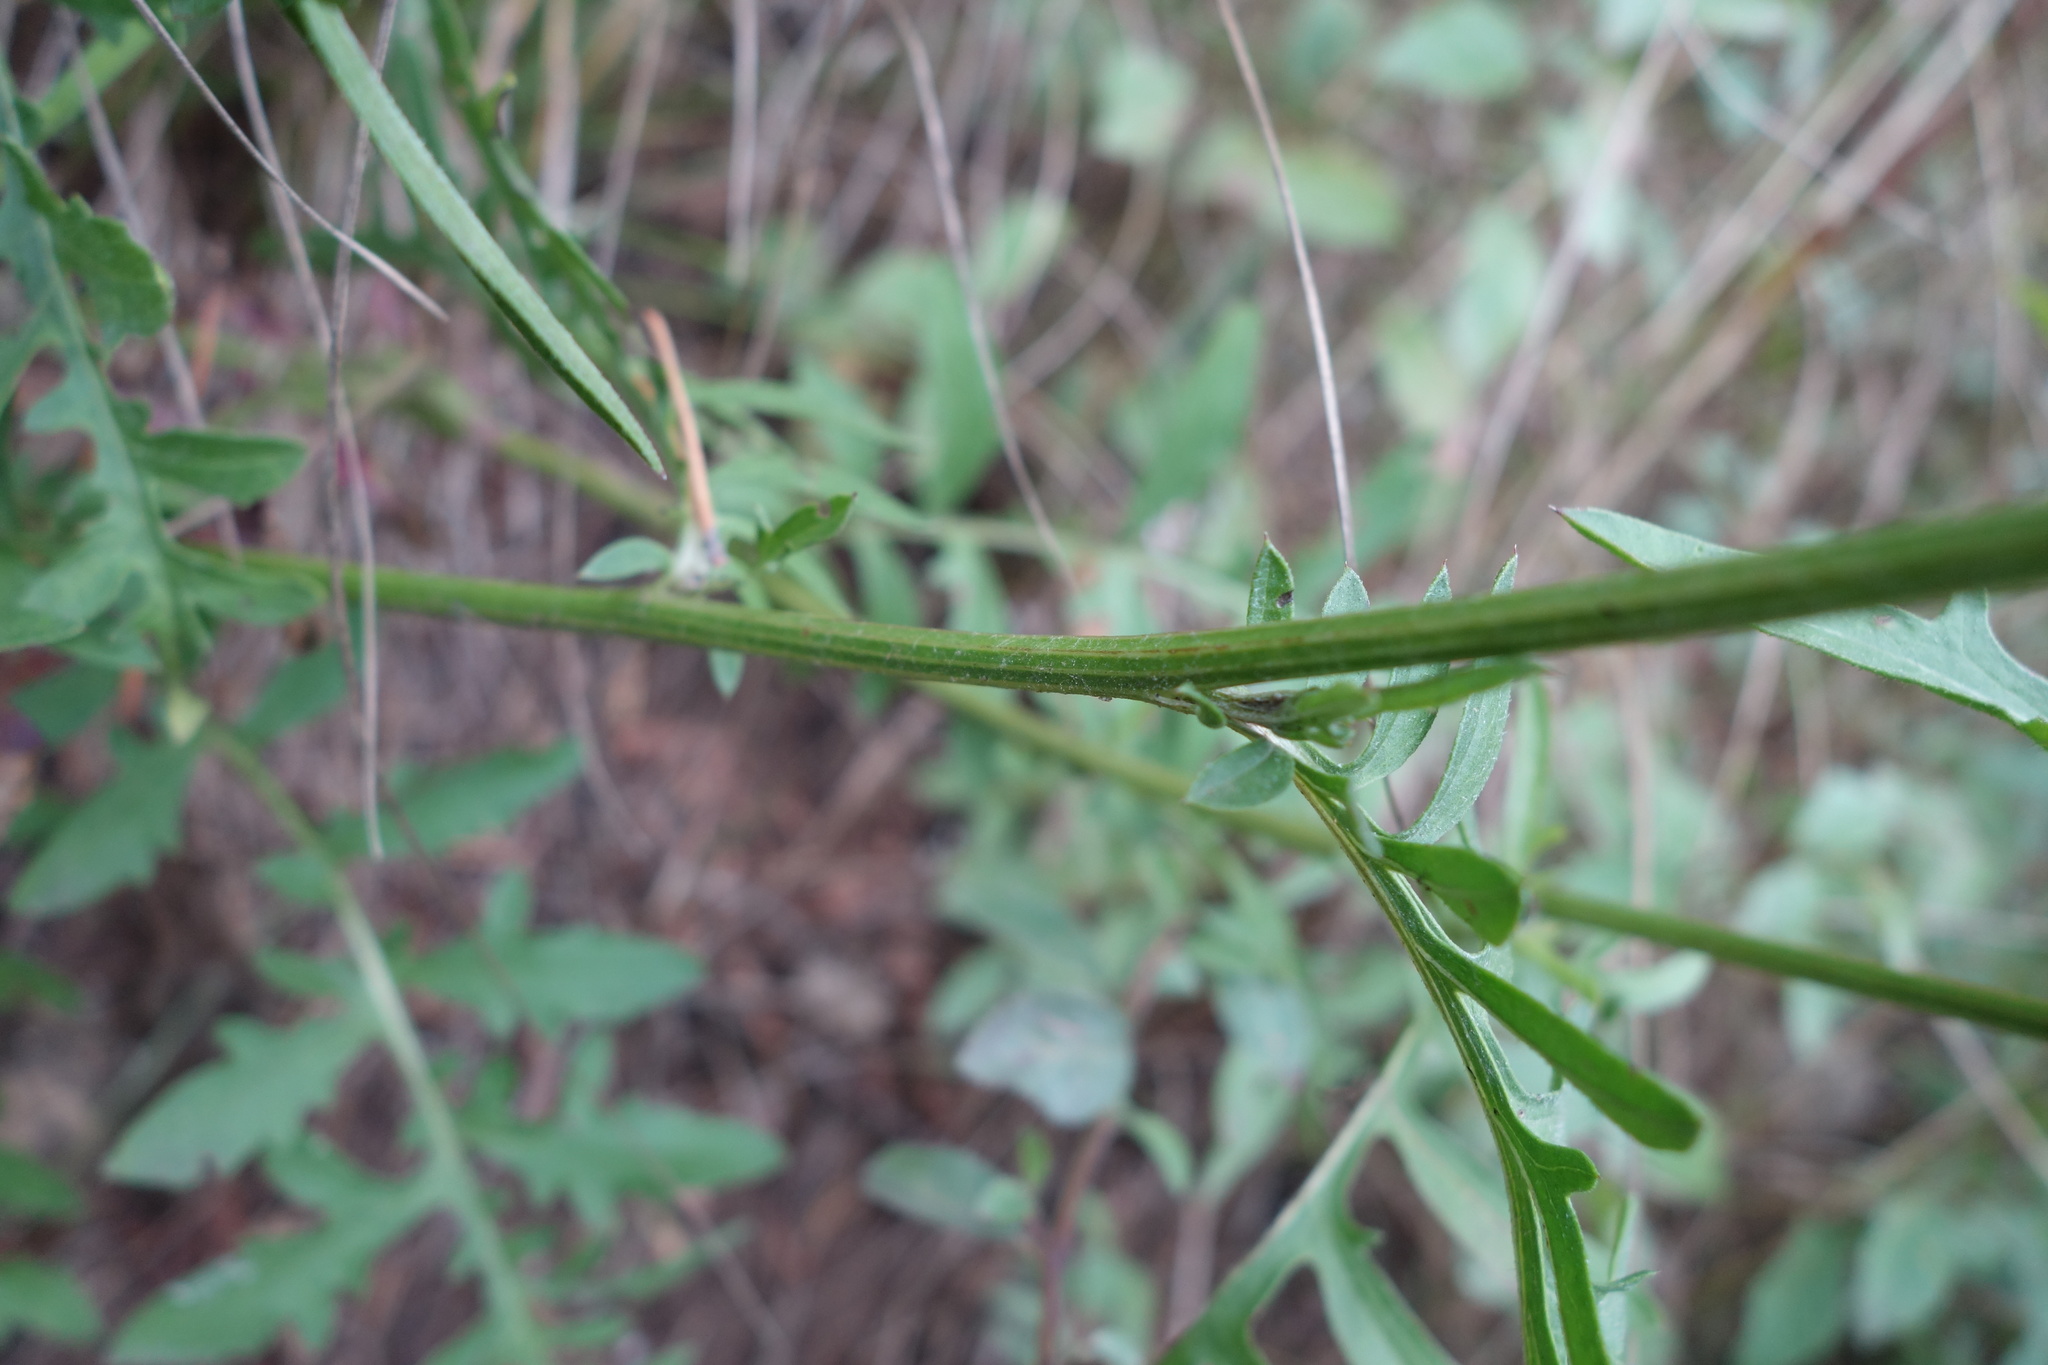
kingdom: Plantae
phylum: Tracheophyta
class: Magnoliopsida
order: Asterales
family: Asteraceae
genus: Centaurea
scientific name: Centaurea scabiosa
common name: Greater knapweed
